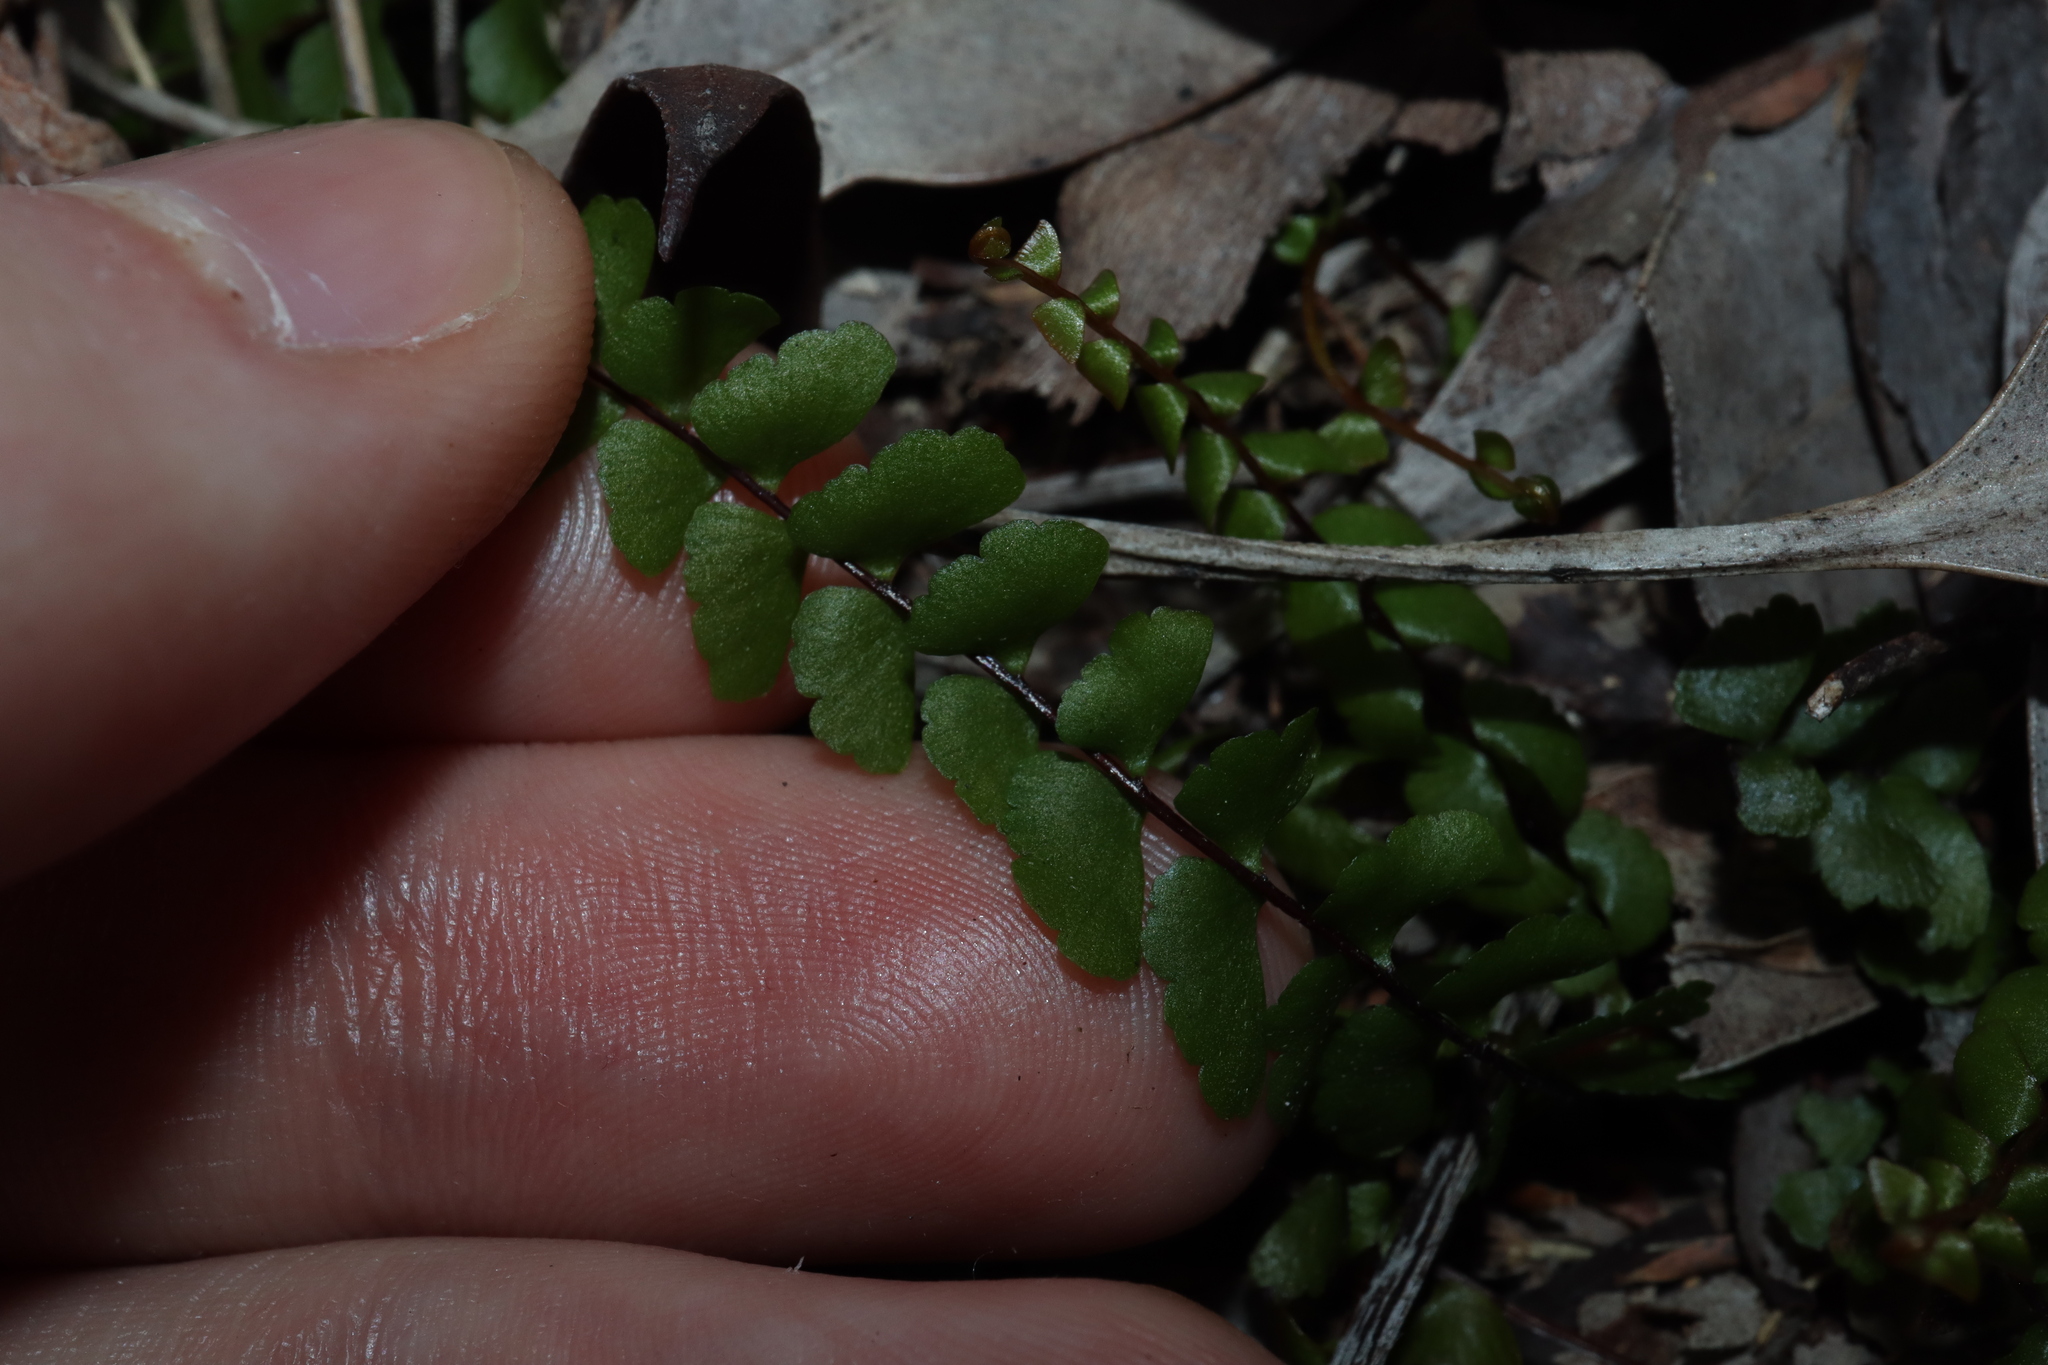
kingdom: Plantae
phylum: Tracheophyta
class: Polypodiopsida
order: Polypodiales
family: Lindsaeaceae
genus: Lindsaea
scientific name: Lindsaea linearis
